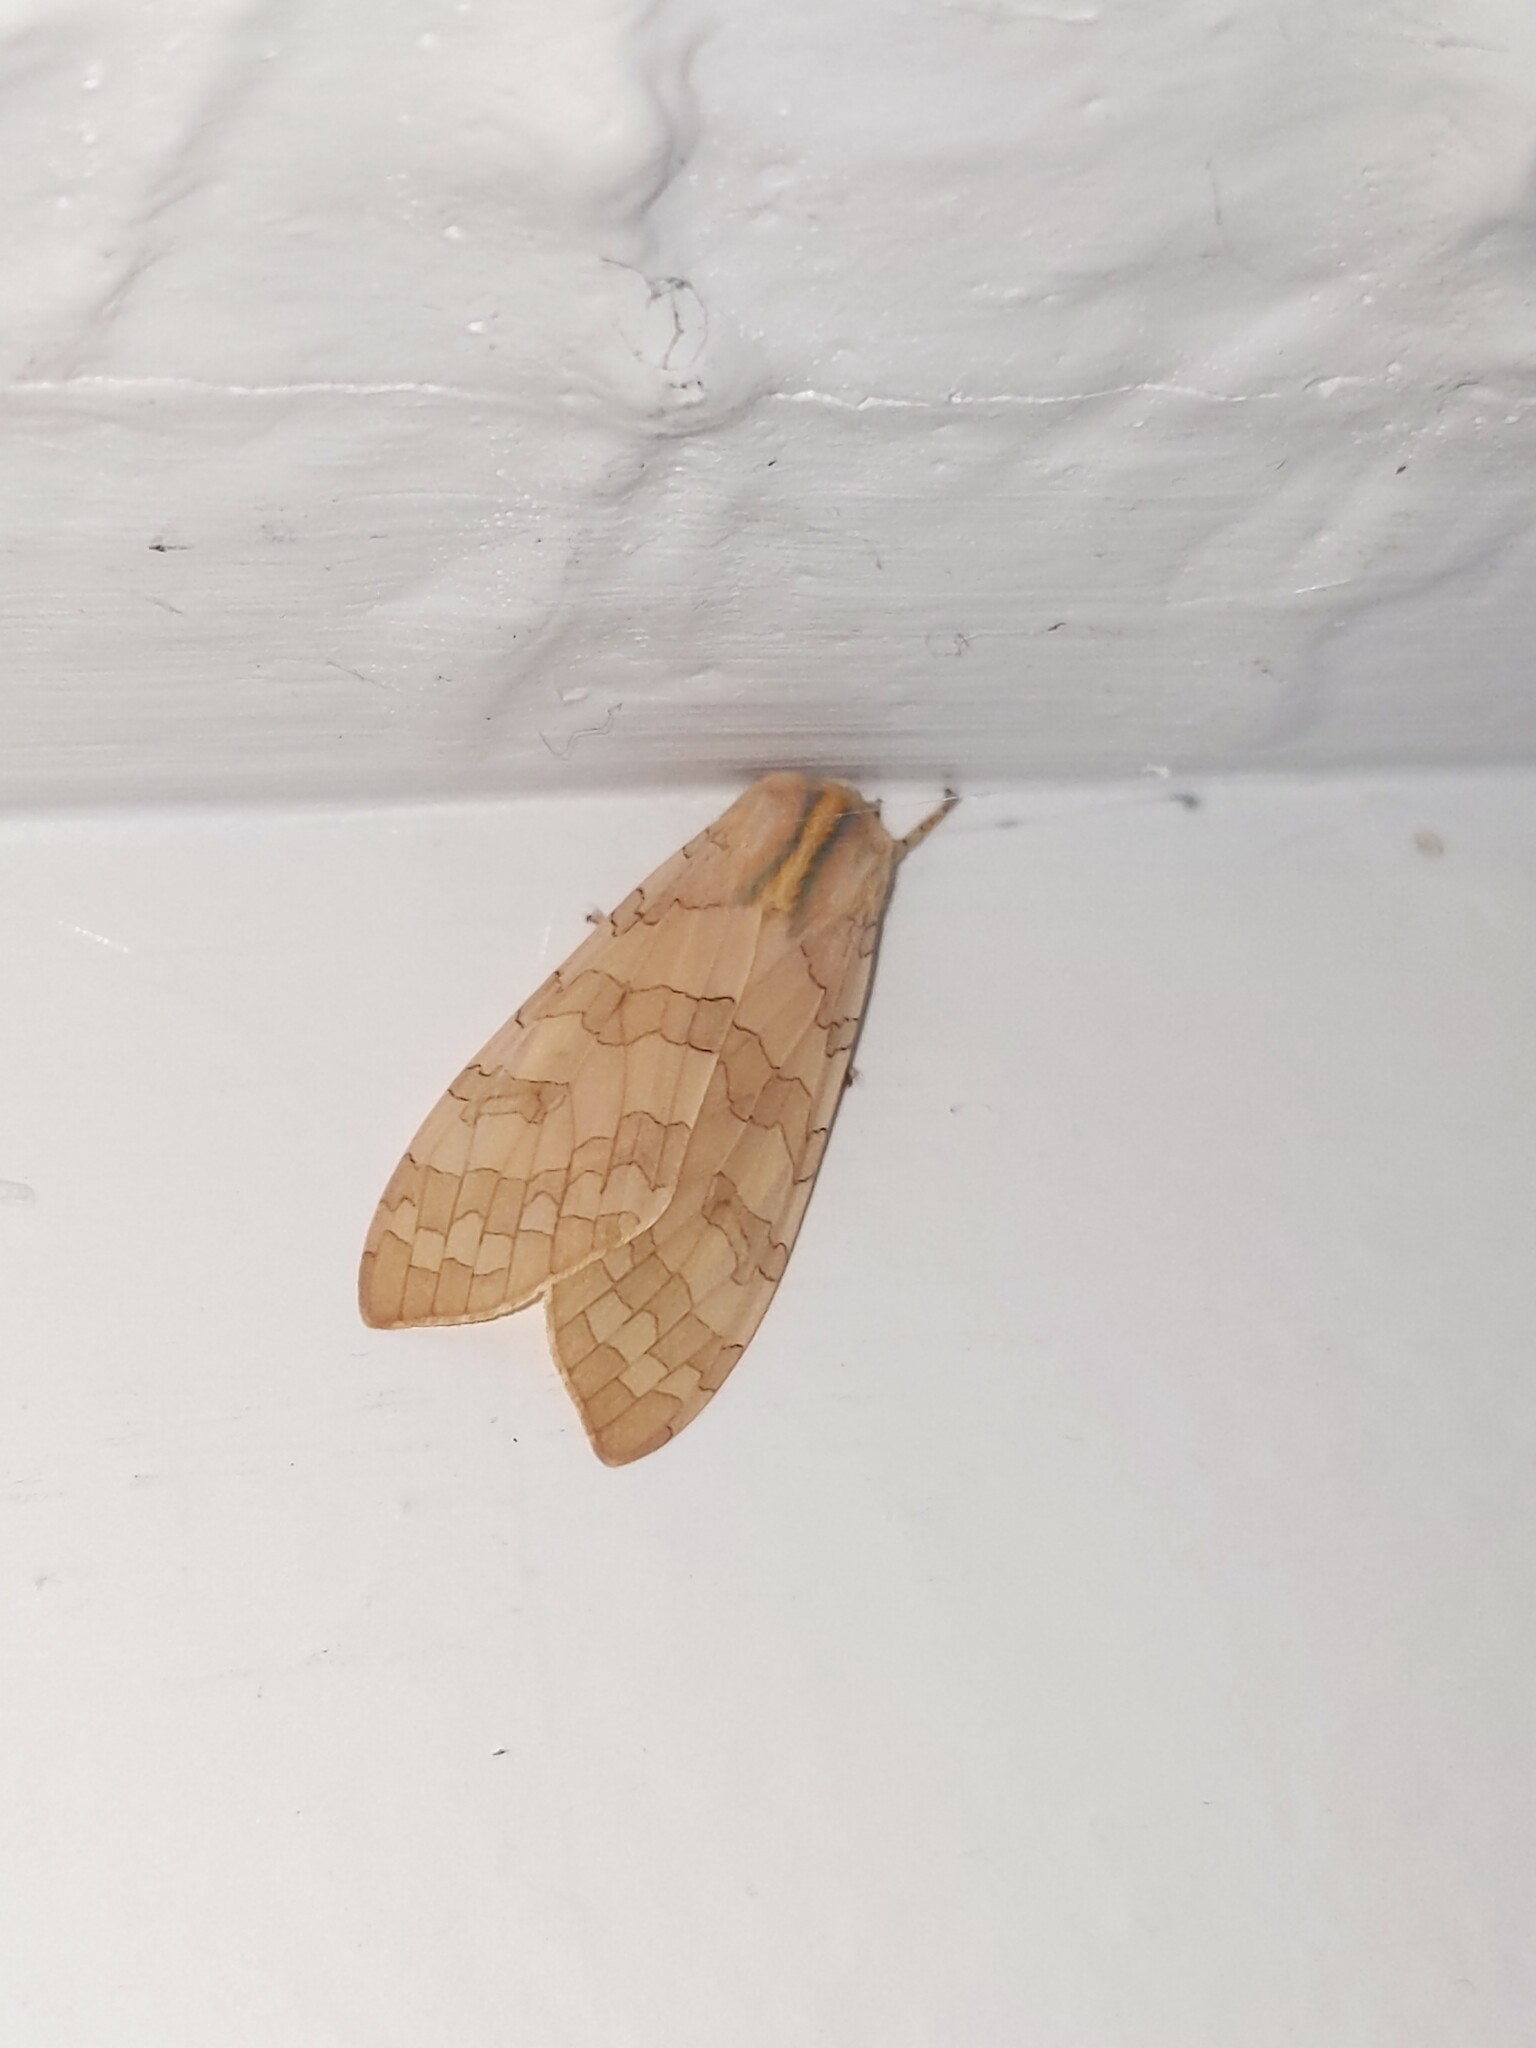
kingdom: Animalia
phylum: Arthropoda
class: Insecta
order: Lepidoptera
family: Erebidae
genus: Halysidota
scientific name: Halysidota
